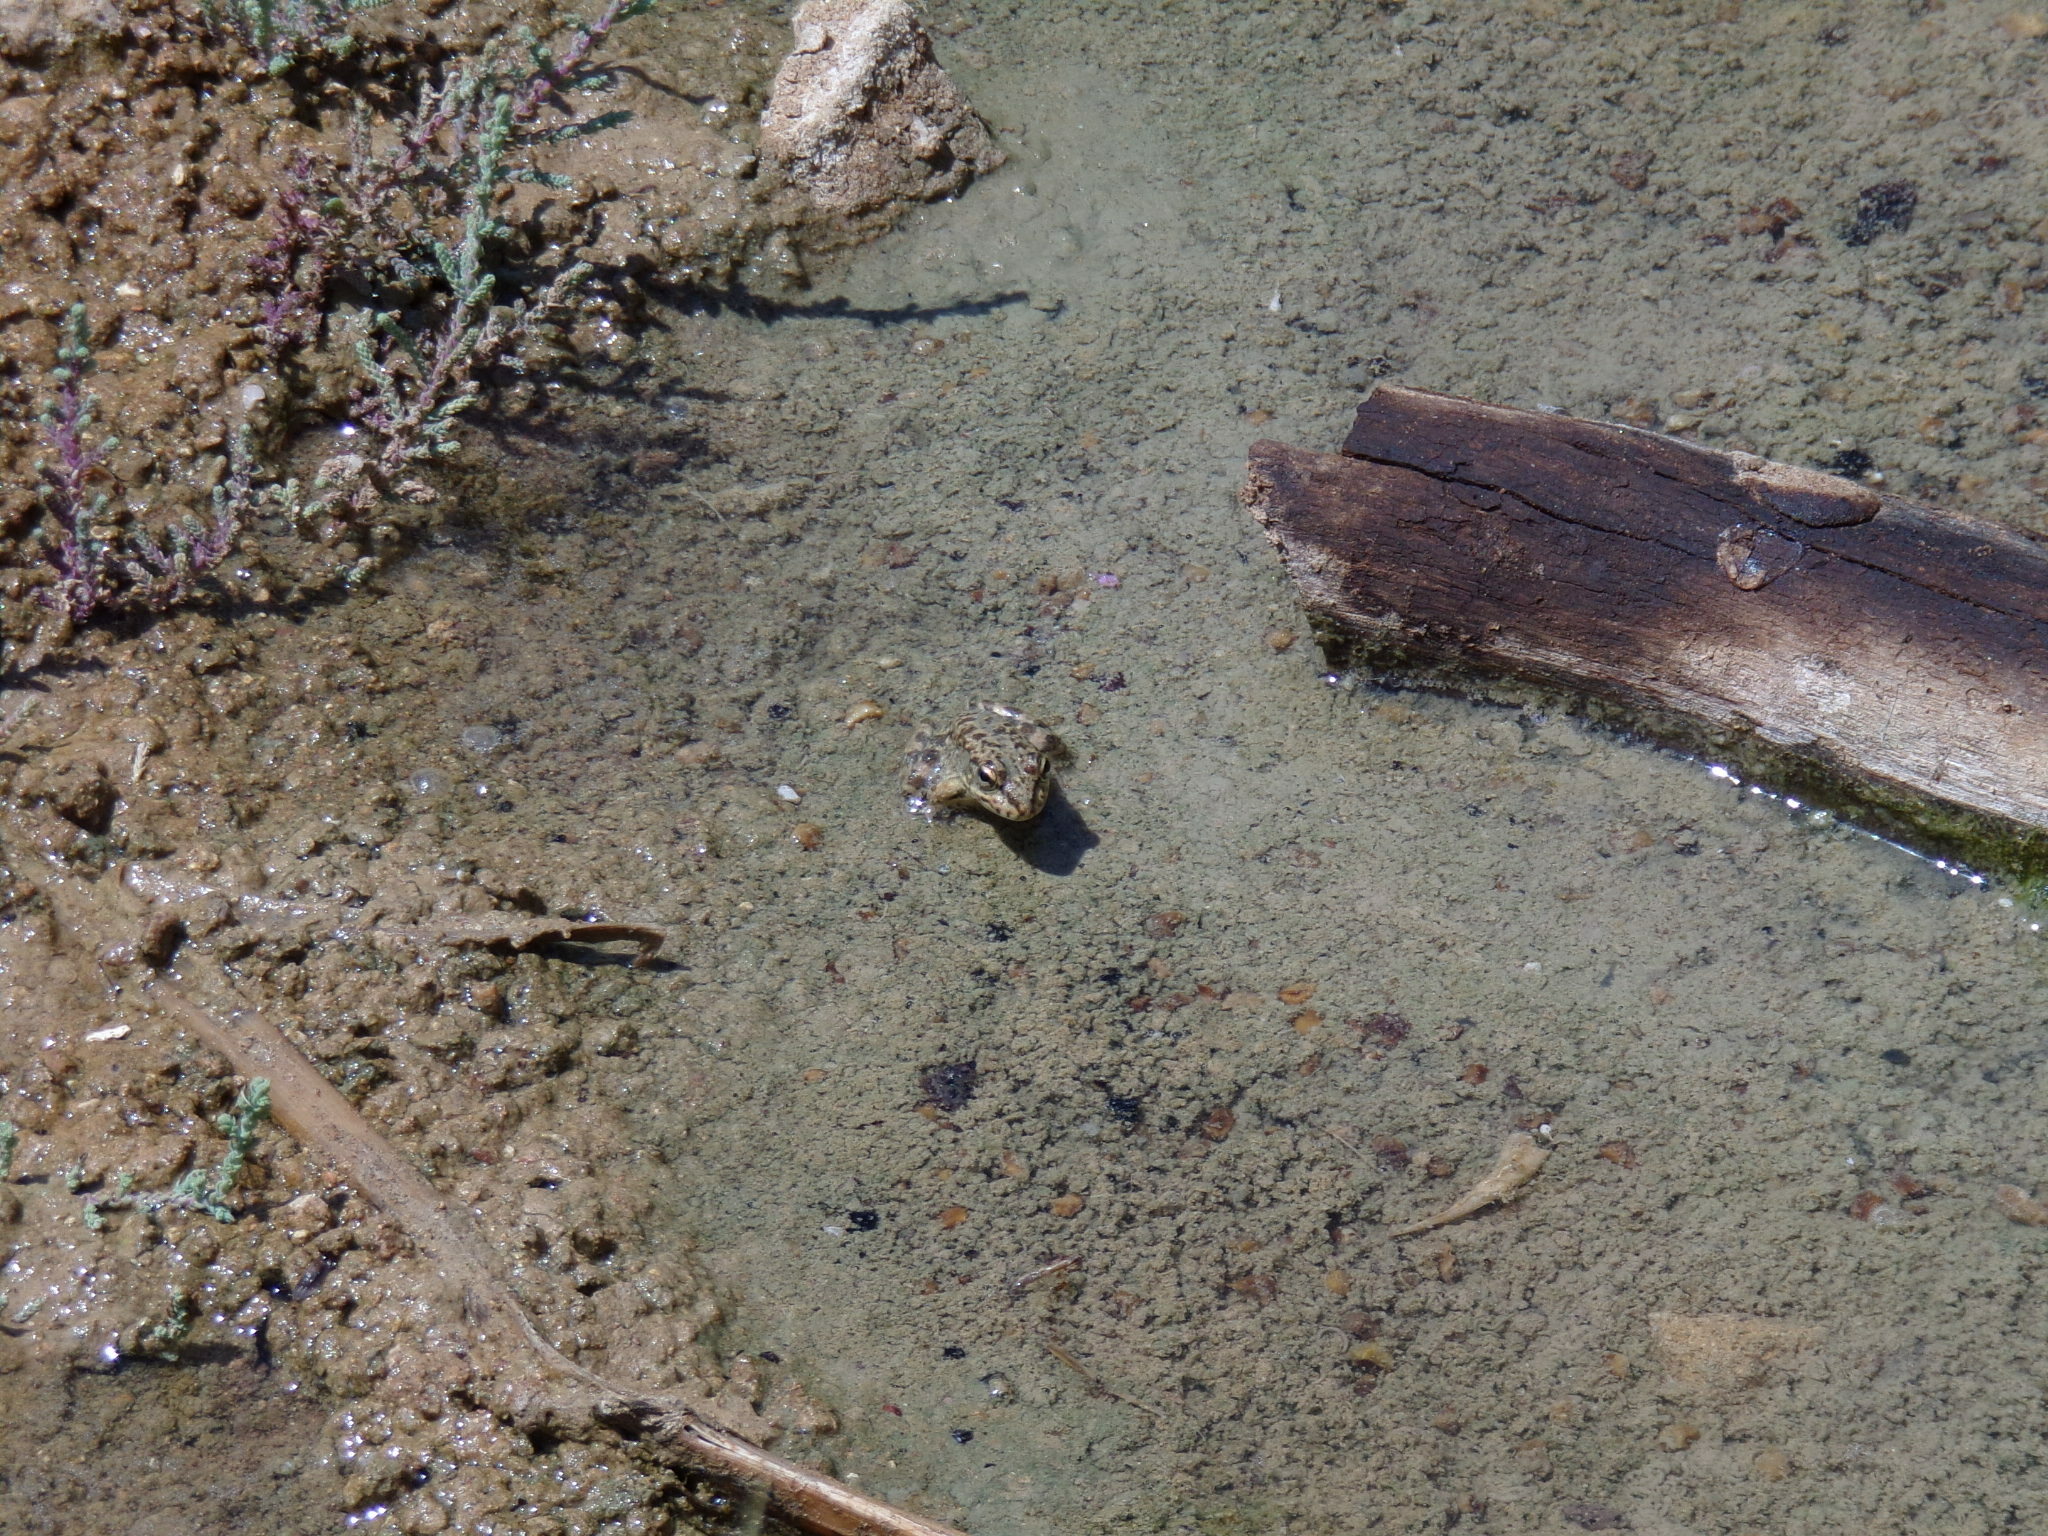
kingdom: Animalia
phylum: Chordata
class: Amphibia
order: Anura
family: Ranidae
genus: Pelophylax
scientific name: Pelophylax ridibundus
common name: Marsh frog
